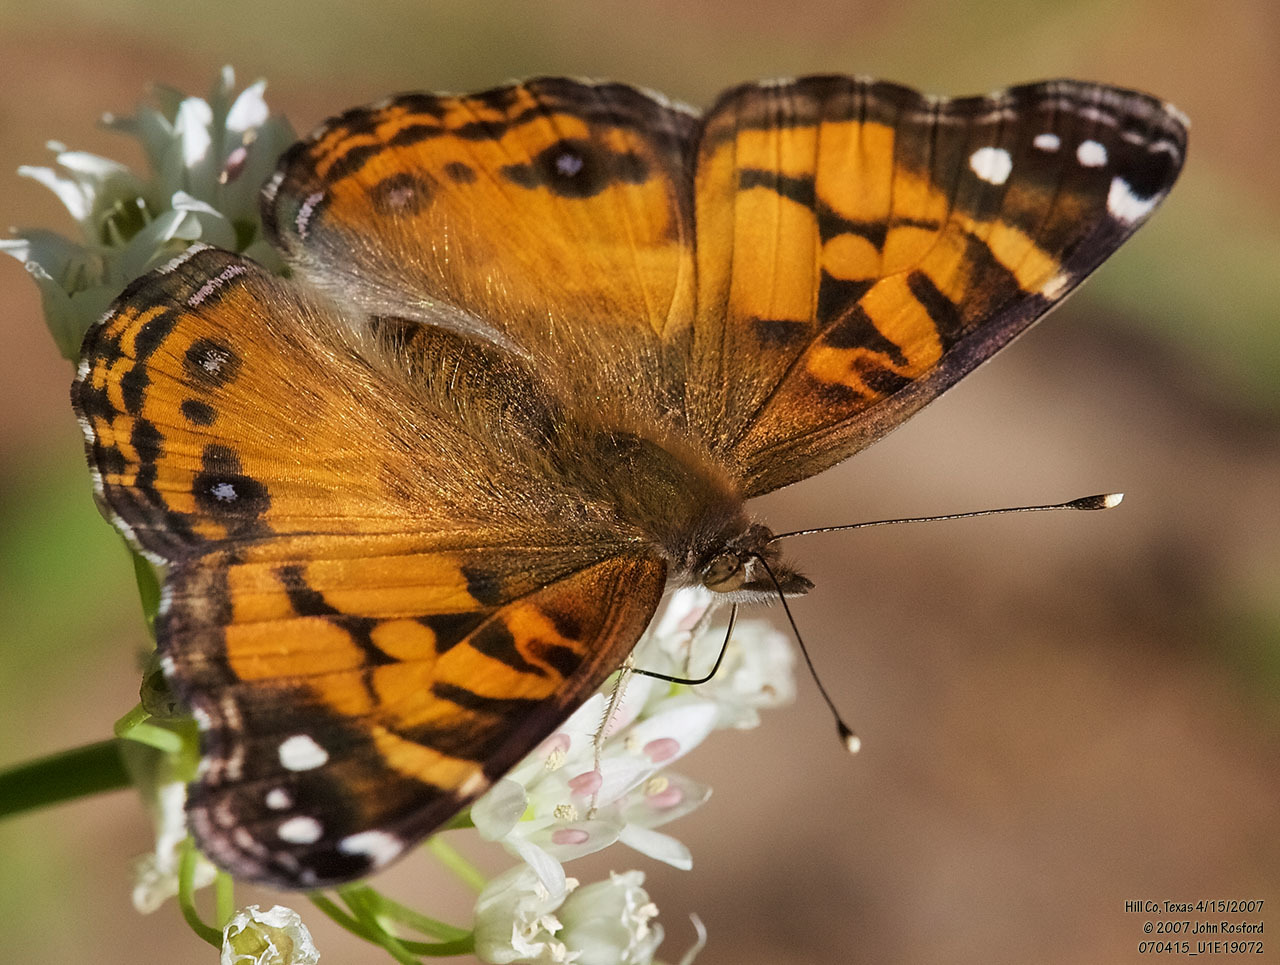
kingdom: Animalia
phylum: Arthropoda
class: Insecta
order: Lepidoptera
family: Nymphalidae
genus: Vanessa
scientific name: Vanessa virginiensis
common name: American lady
